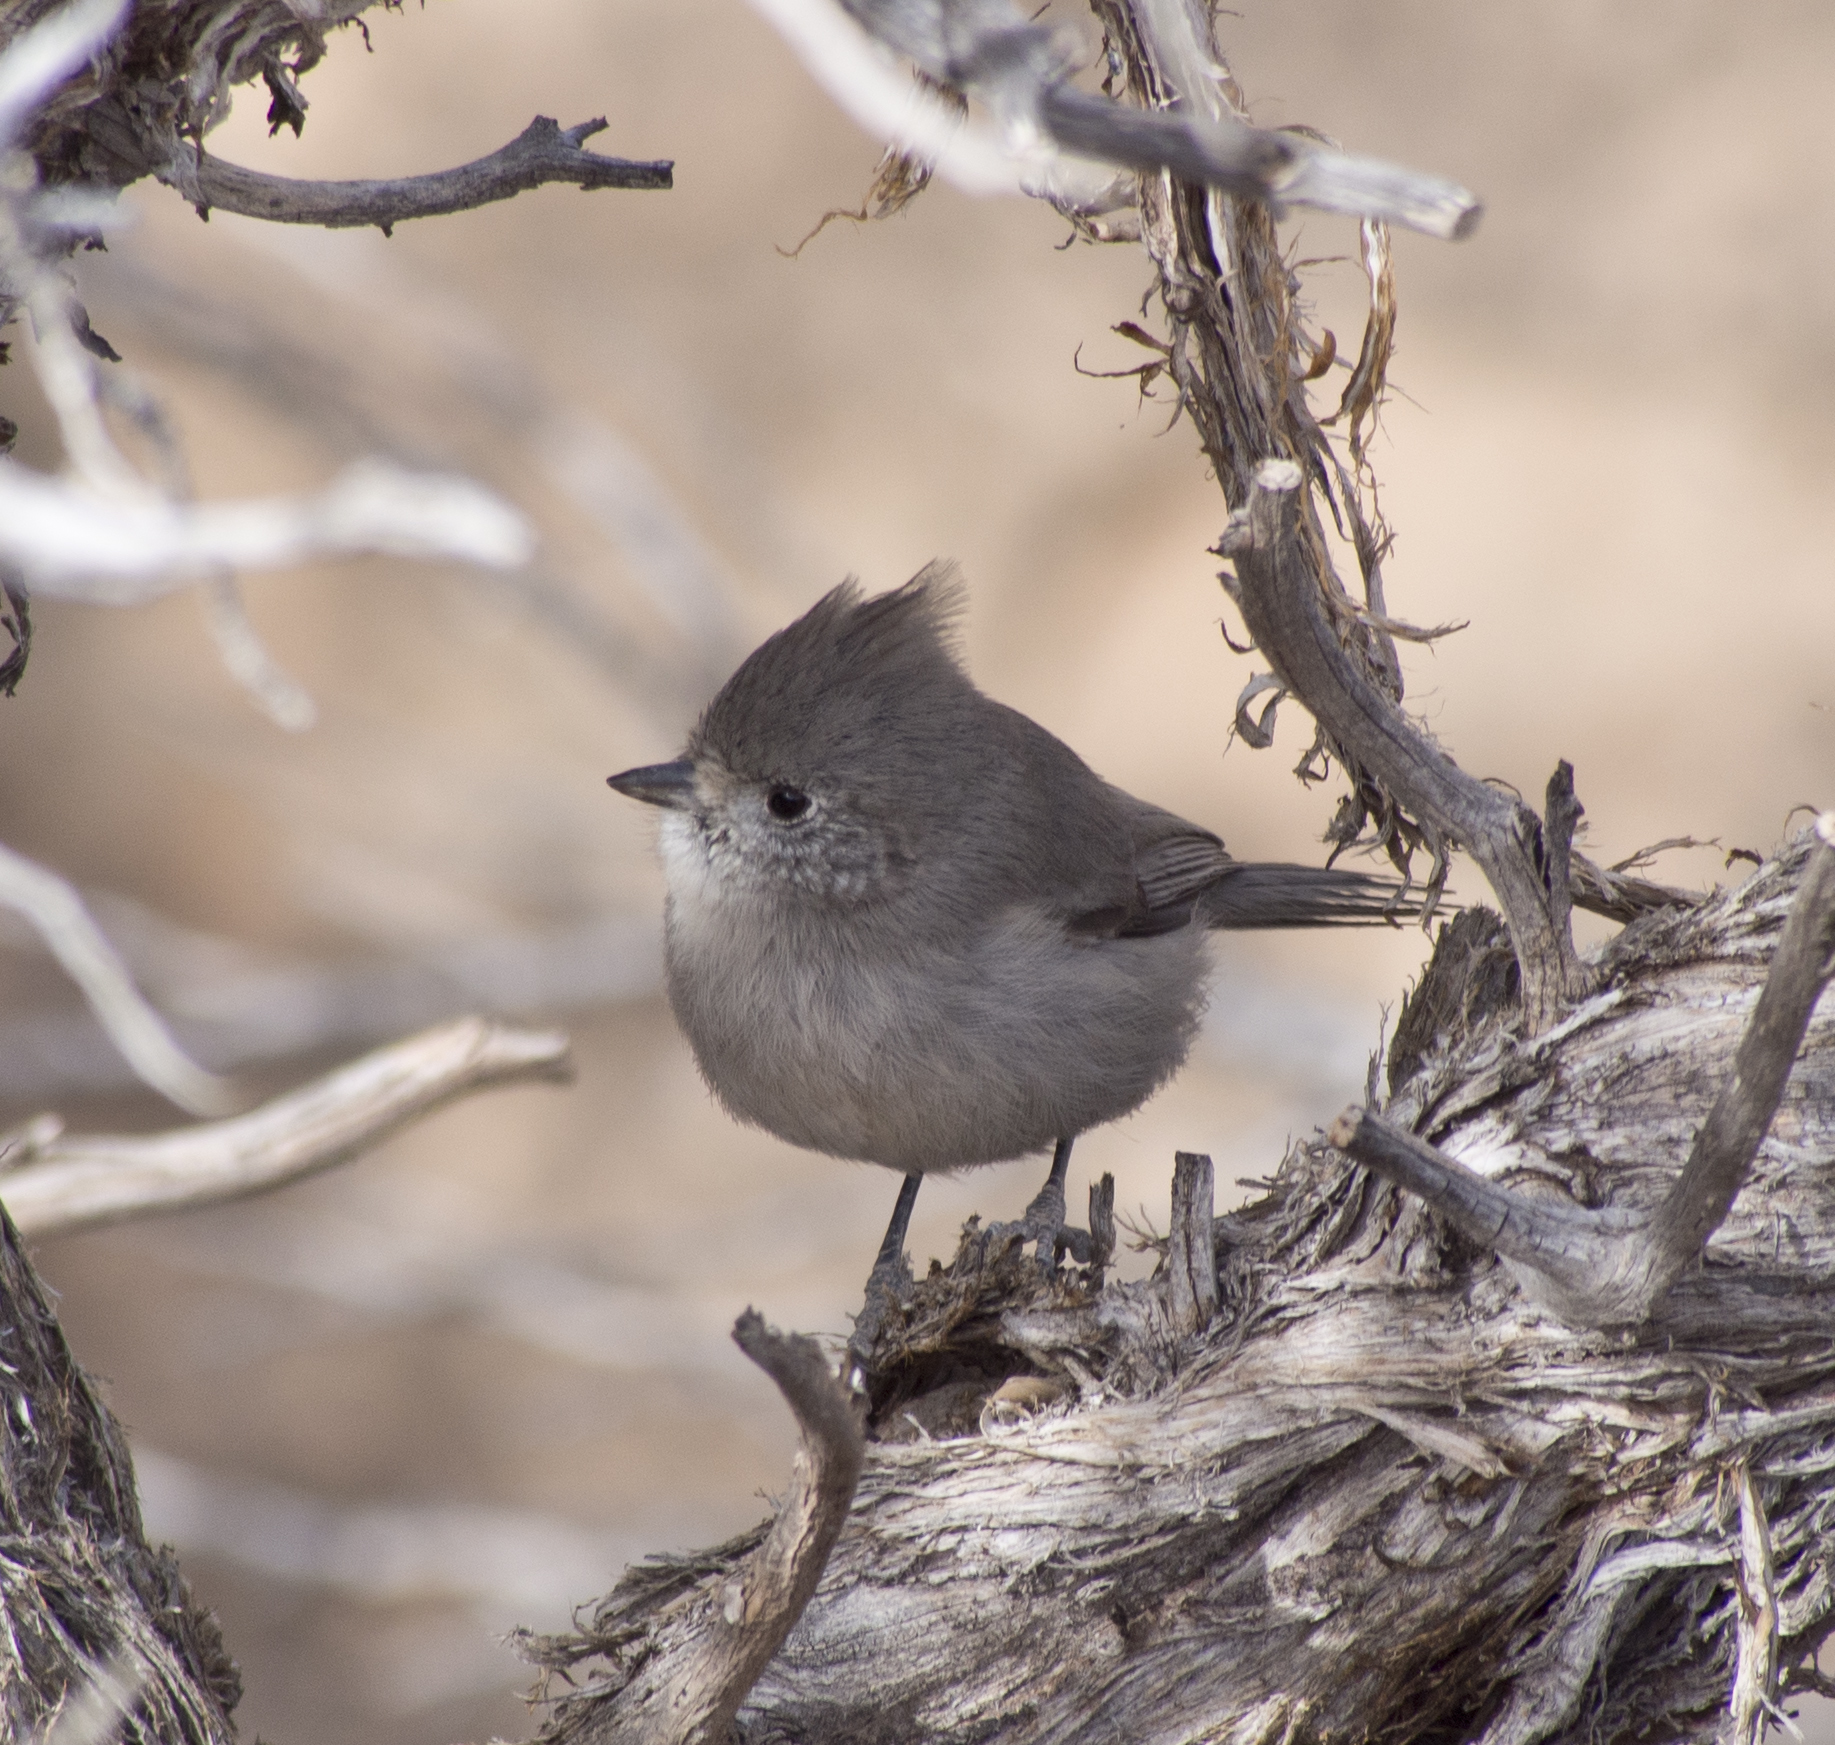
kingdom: Animalia
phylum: Chordata
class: Aves
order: Passeriformes
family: Paridae
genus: Baeolophus
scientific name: Baeolophus ridgwayi
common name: Juniper titmouse
